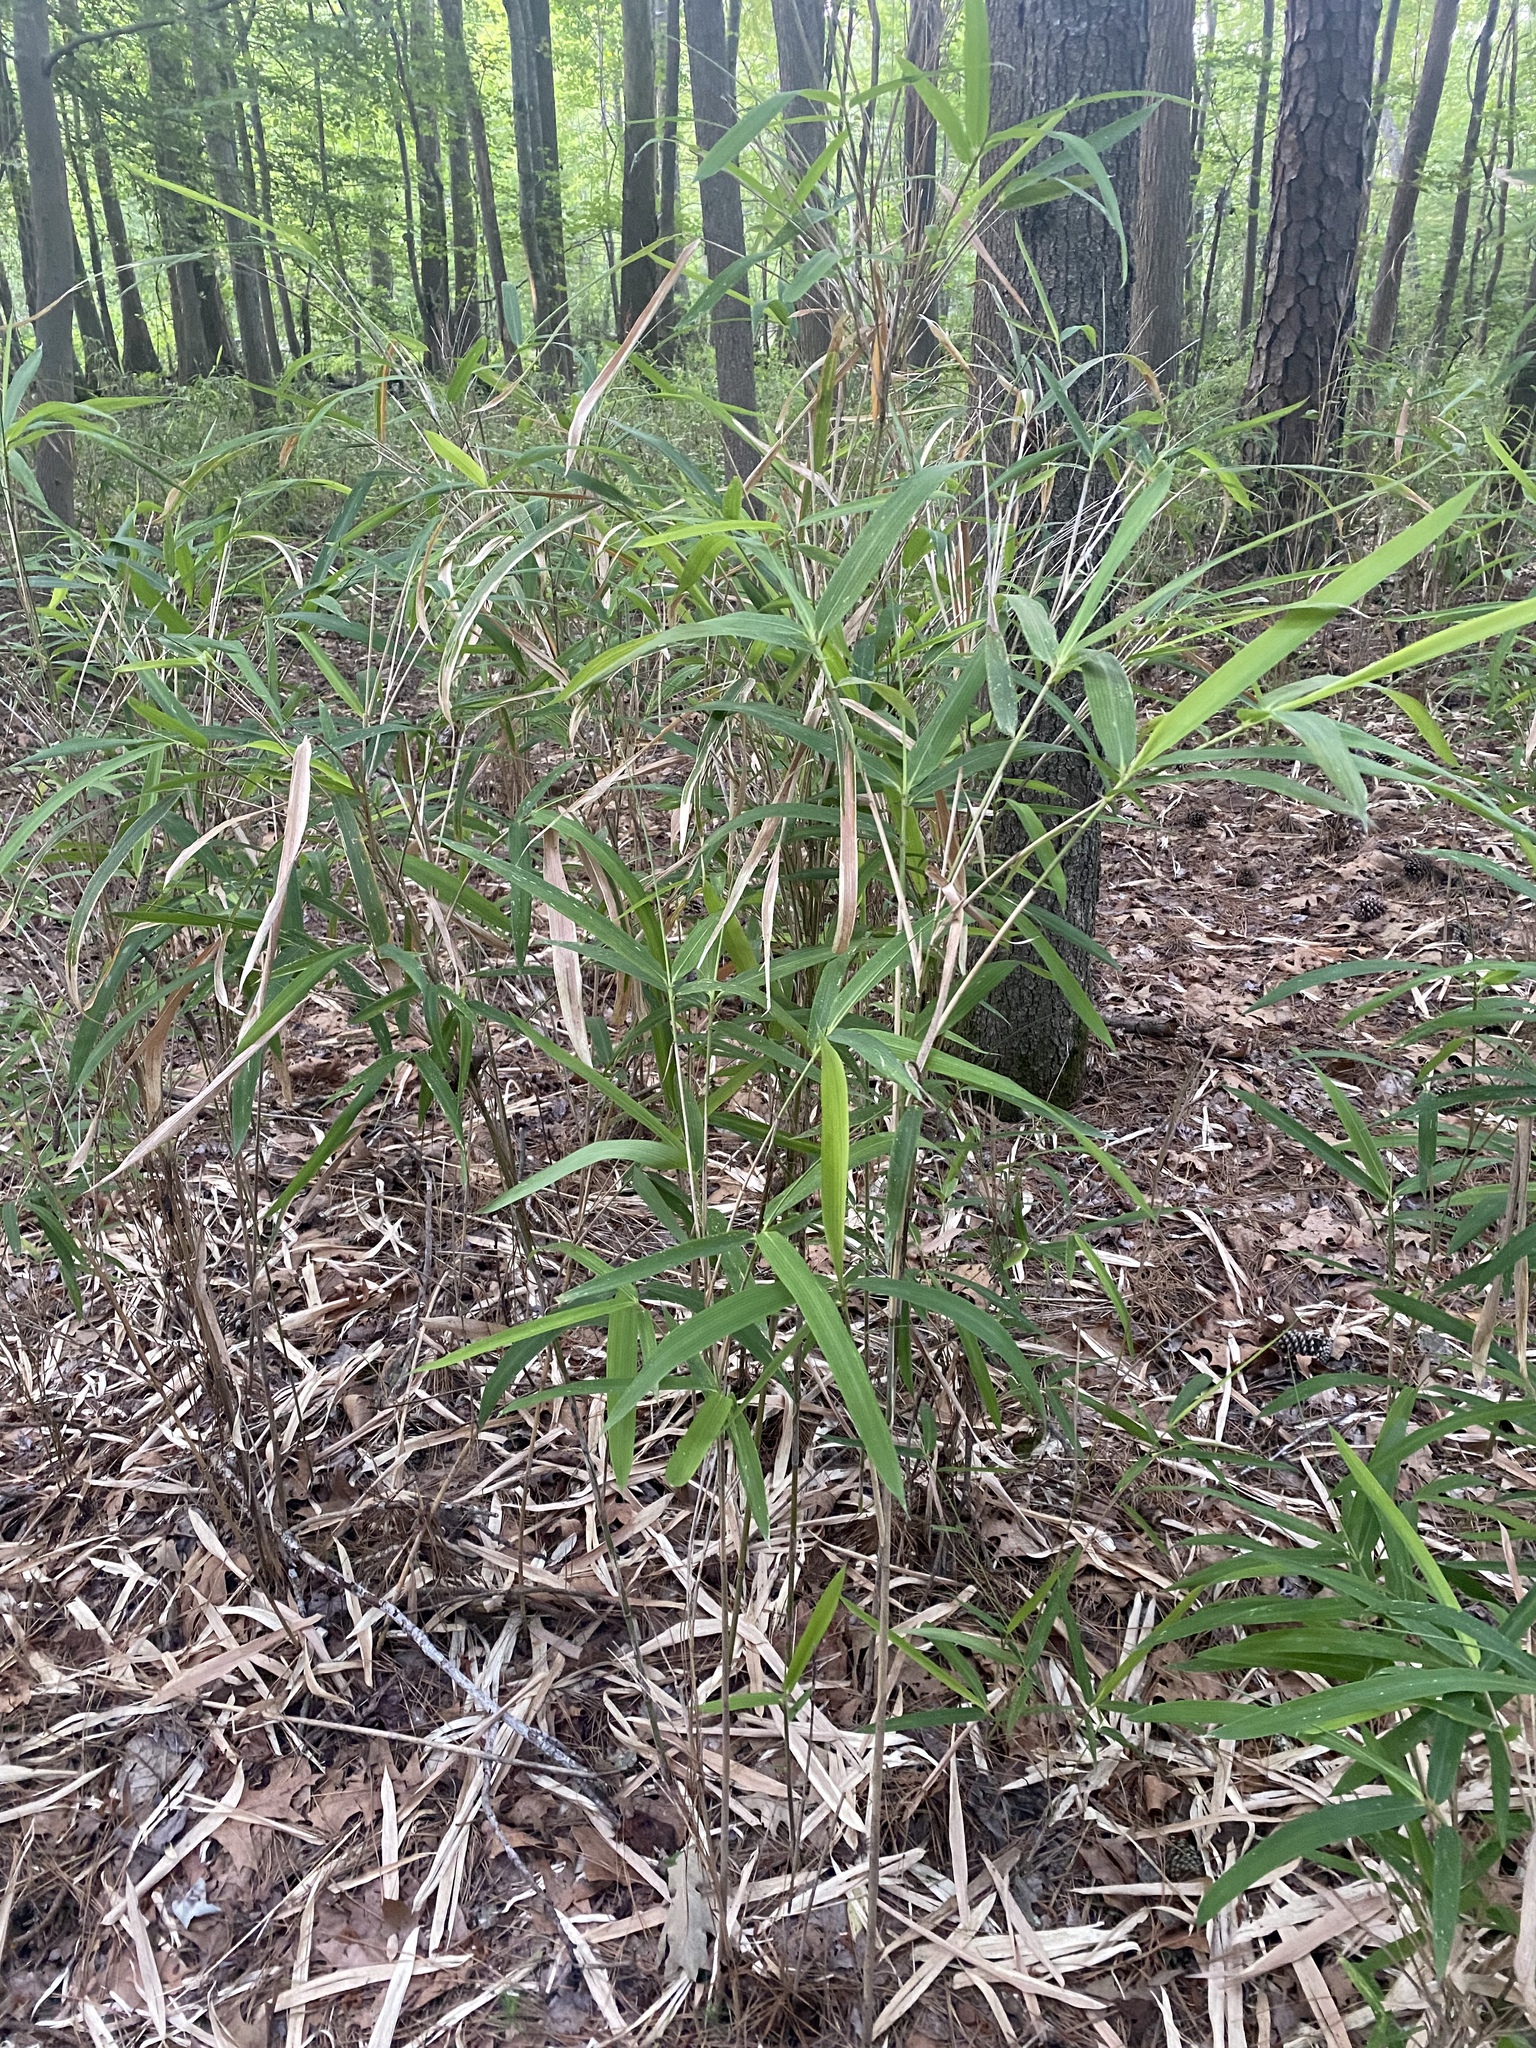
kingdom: Plantae
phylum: Tracheophyta
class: Liliopsida
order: Poales
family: Poaceae
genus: Arundinaria
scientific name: Arundinaria tecta
